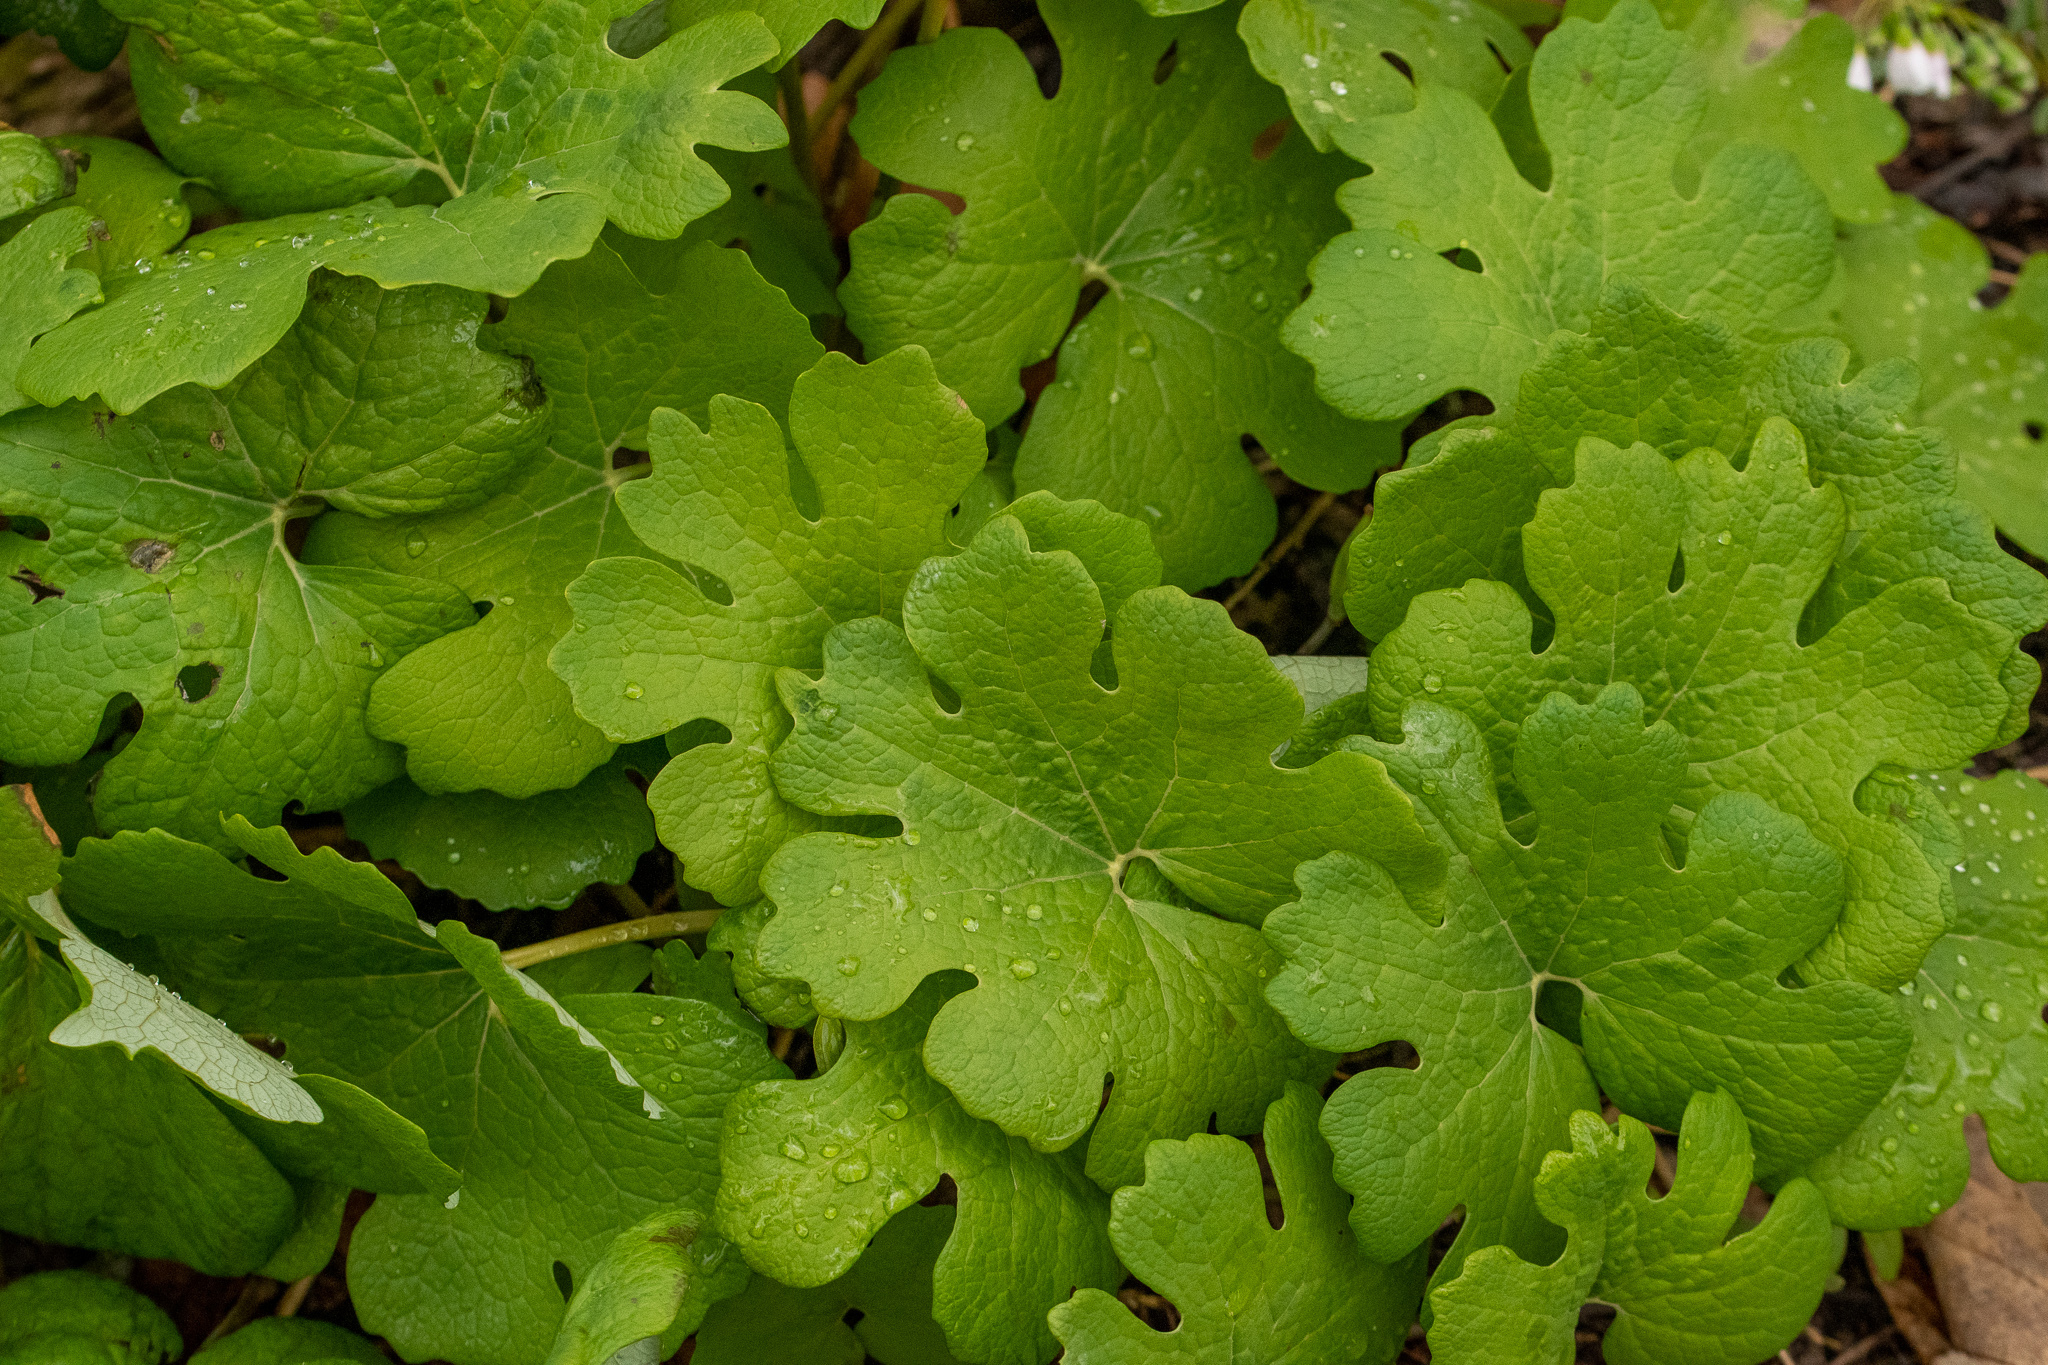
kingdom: Plantae
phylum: Tracheophyta
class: Magnoliopsida
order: Ranunculales
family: Papaveraceae
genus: Sanguinaria
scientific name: Sanguinaria canadensis
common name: Bloodroot
